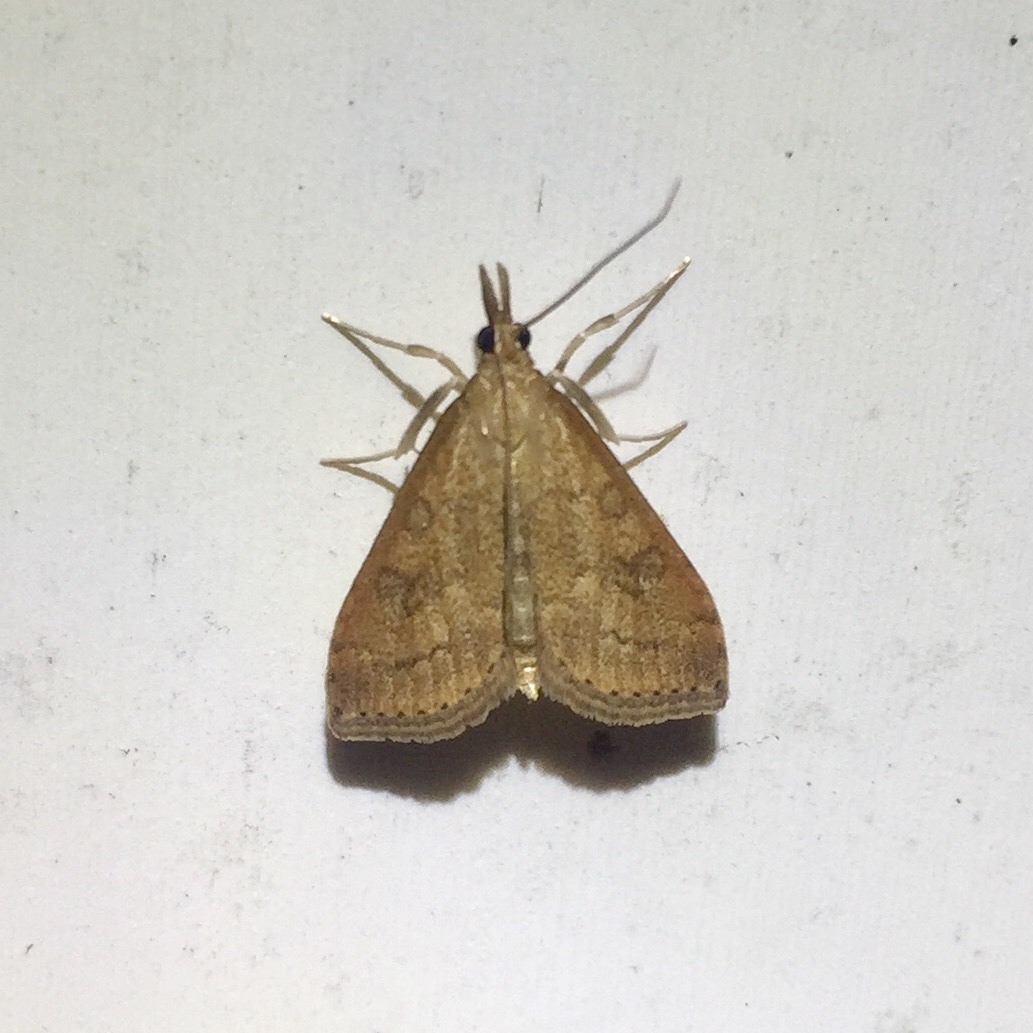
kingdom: Animalia
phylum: Arthropoda
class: Insecta
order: Lepidoptera
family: Crambidae
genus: Udea
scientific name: Udea rubigalis
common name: Celery leaftier moth
